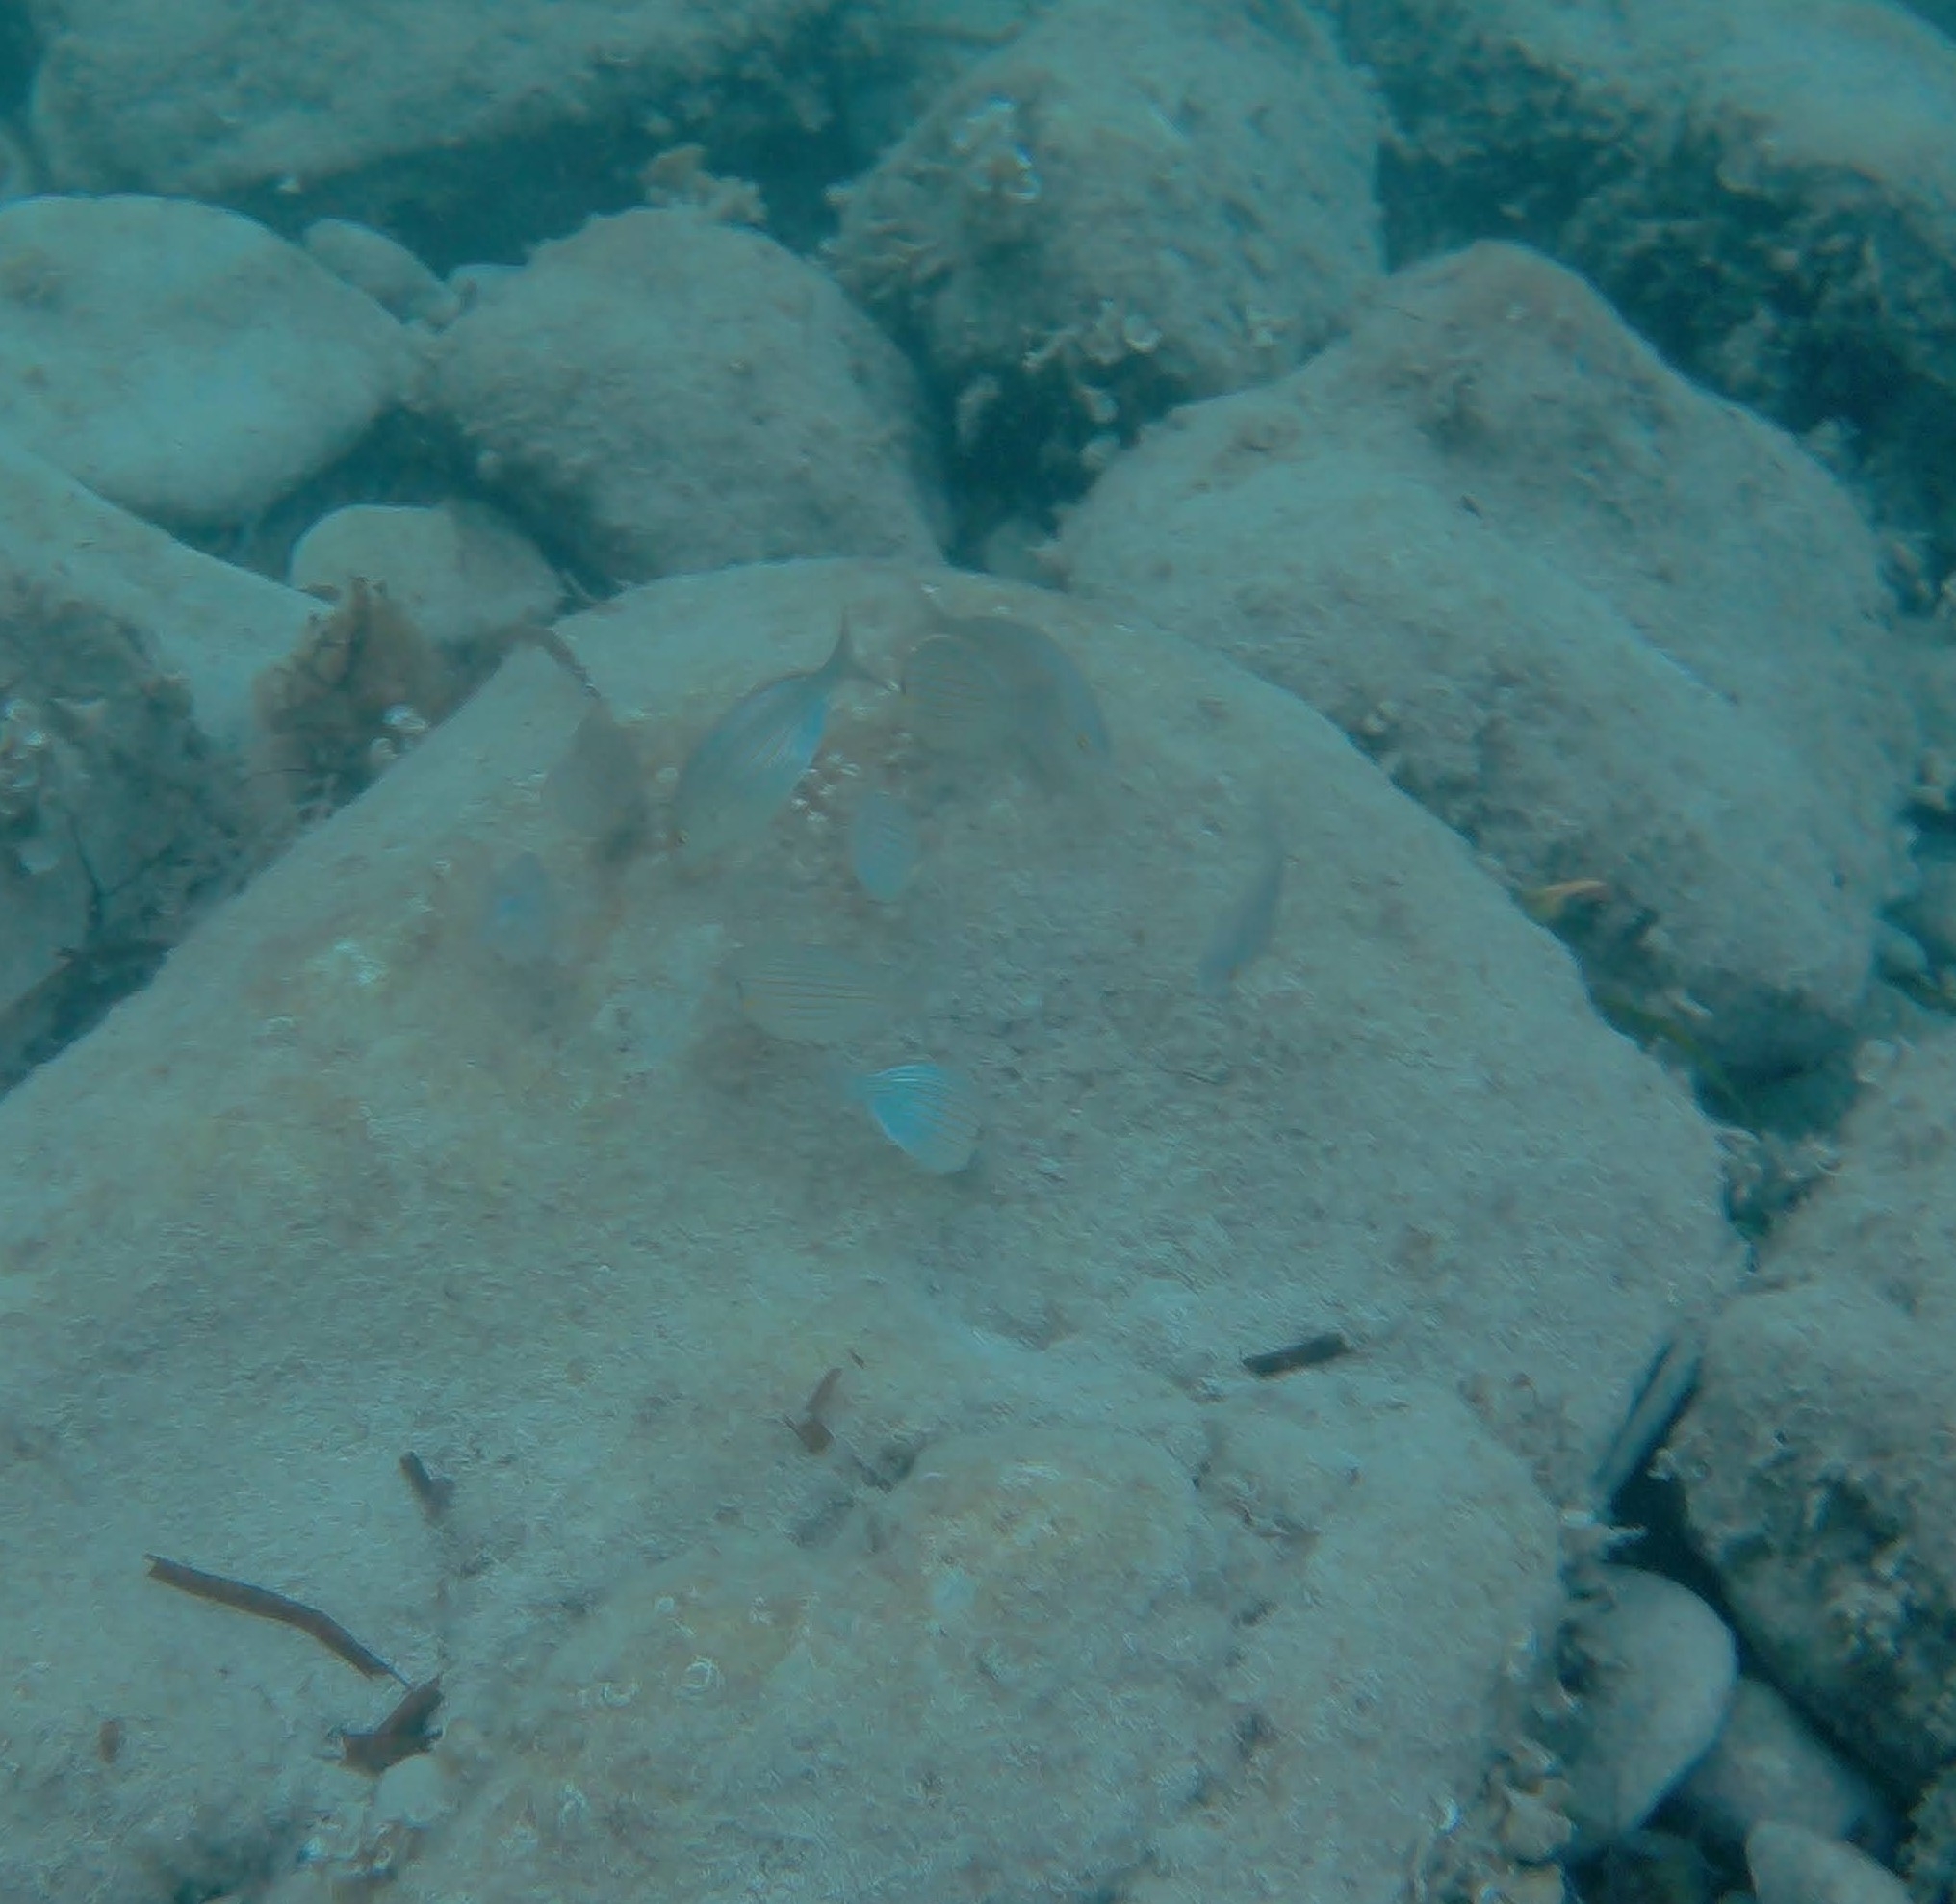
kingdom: Animalia
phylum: Chordata
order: Perciformes
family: Sparidae
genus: Sarpa
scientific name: Sarpa salpa
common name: Salema
